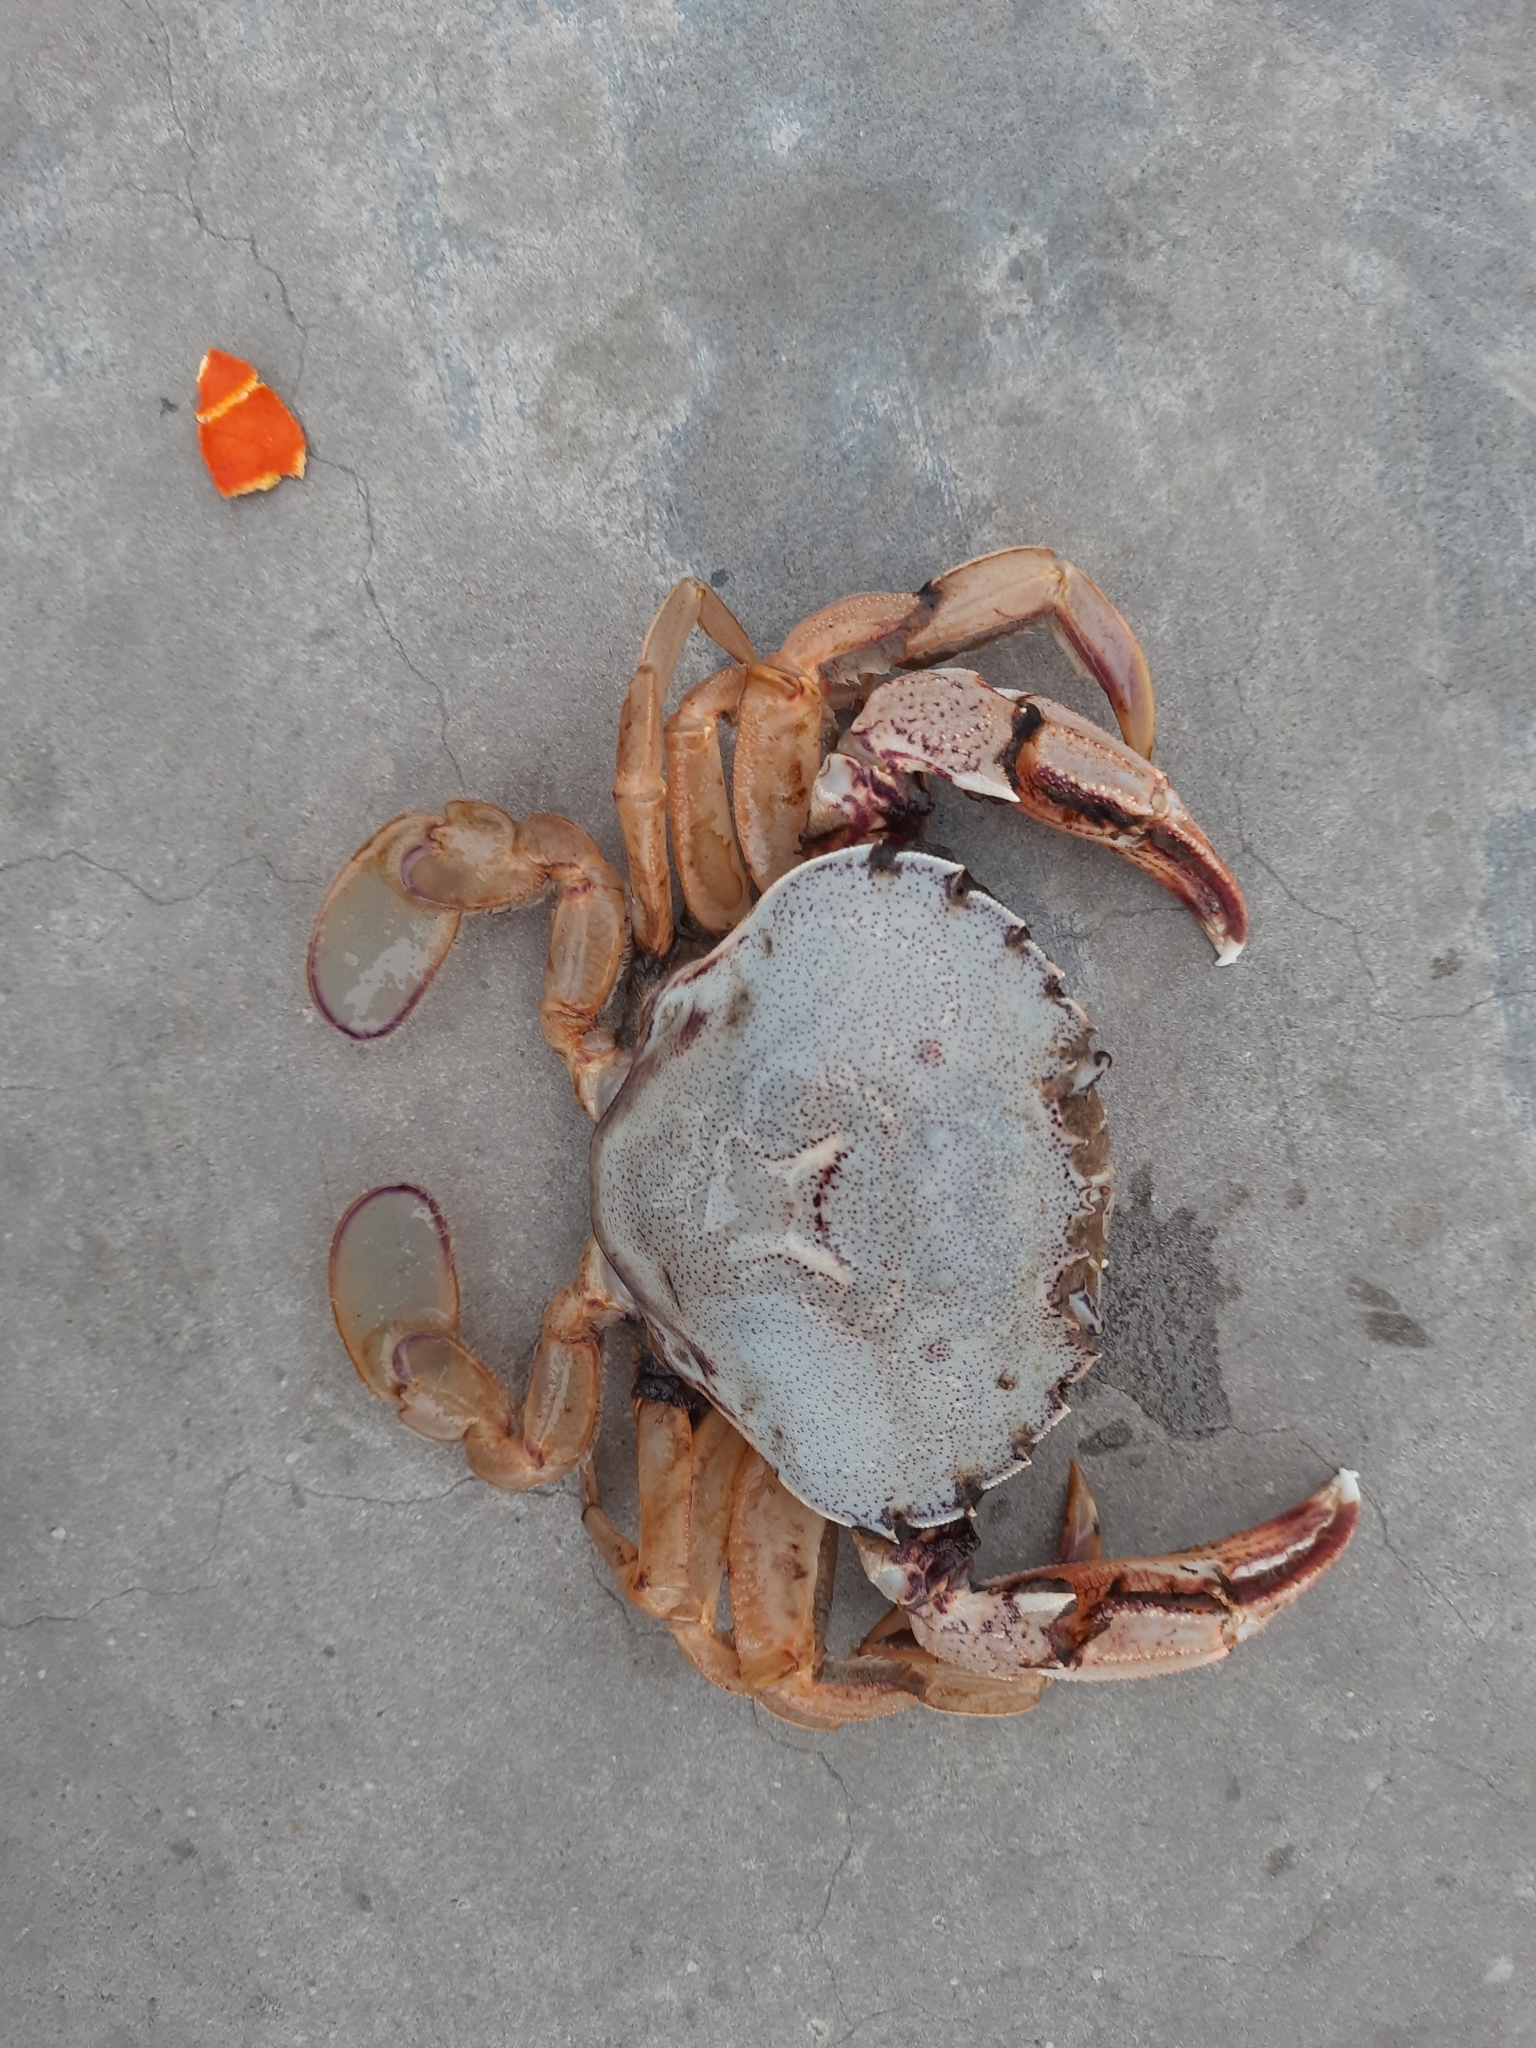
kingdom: Animalia
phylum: Arthropoda
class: Malacostraca
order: Decapoda
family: Ovalipidae
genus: Ovalipes
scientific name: Ovalipes catharus
